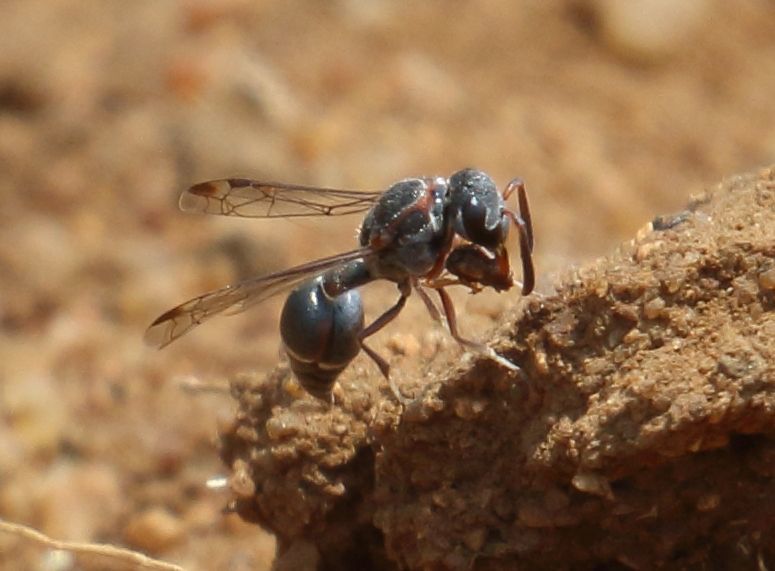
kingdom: Animalia
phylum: Arthropoda
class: Insecta
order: Hymenoptera
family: Eumenidae
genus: Pseudonortonia
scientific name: Pseudonortonia
